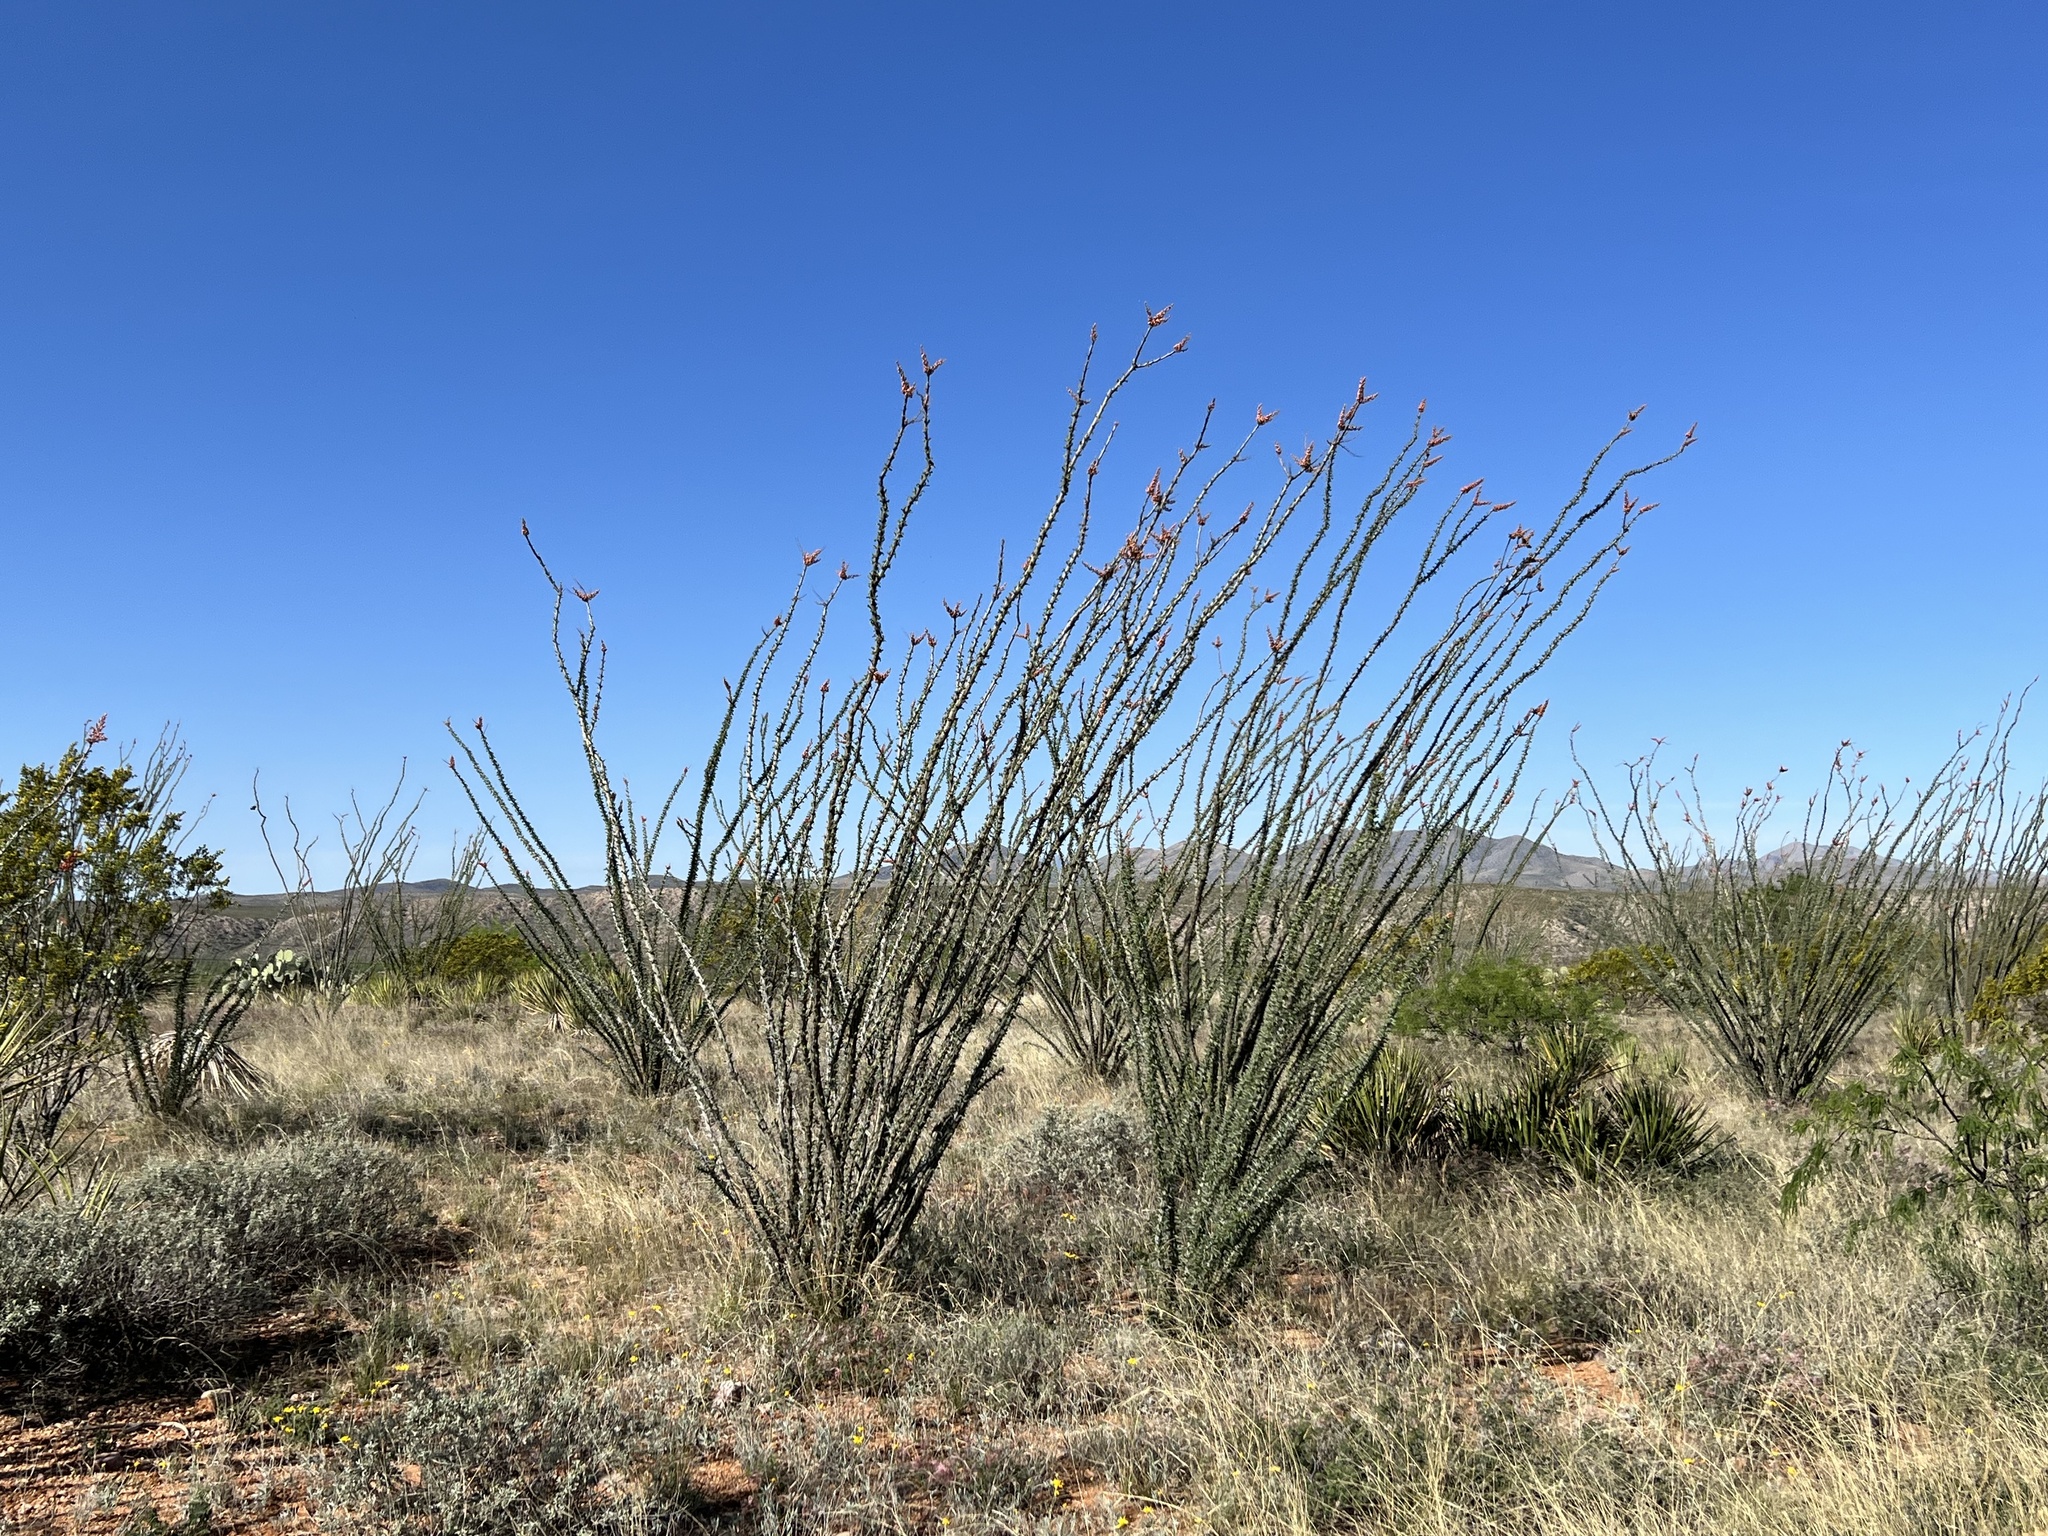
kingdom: Plantae
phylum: Tracheophyta
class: Magnoliopsida
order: Ericales
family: Fouquieriaceae
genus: Fouquieria
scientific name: Fouquieria splendens
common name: Vine-cactus
